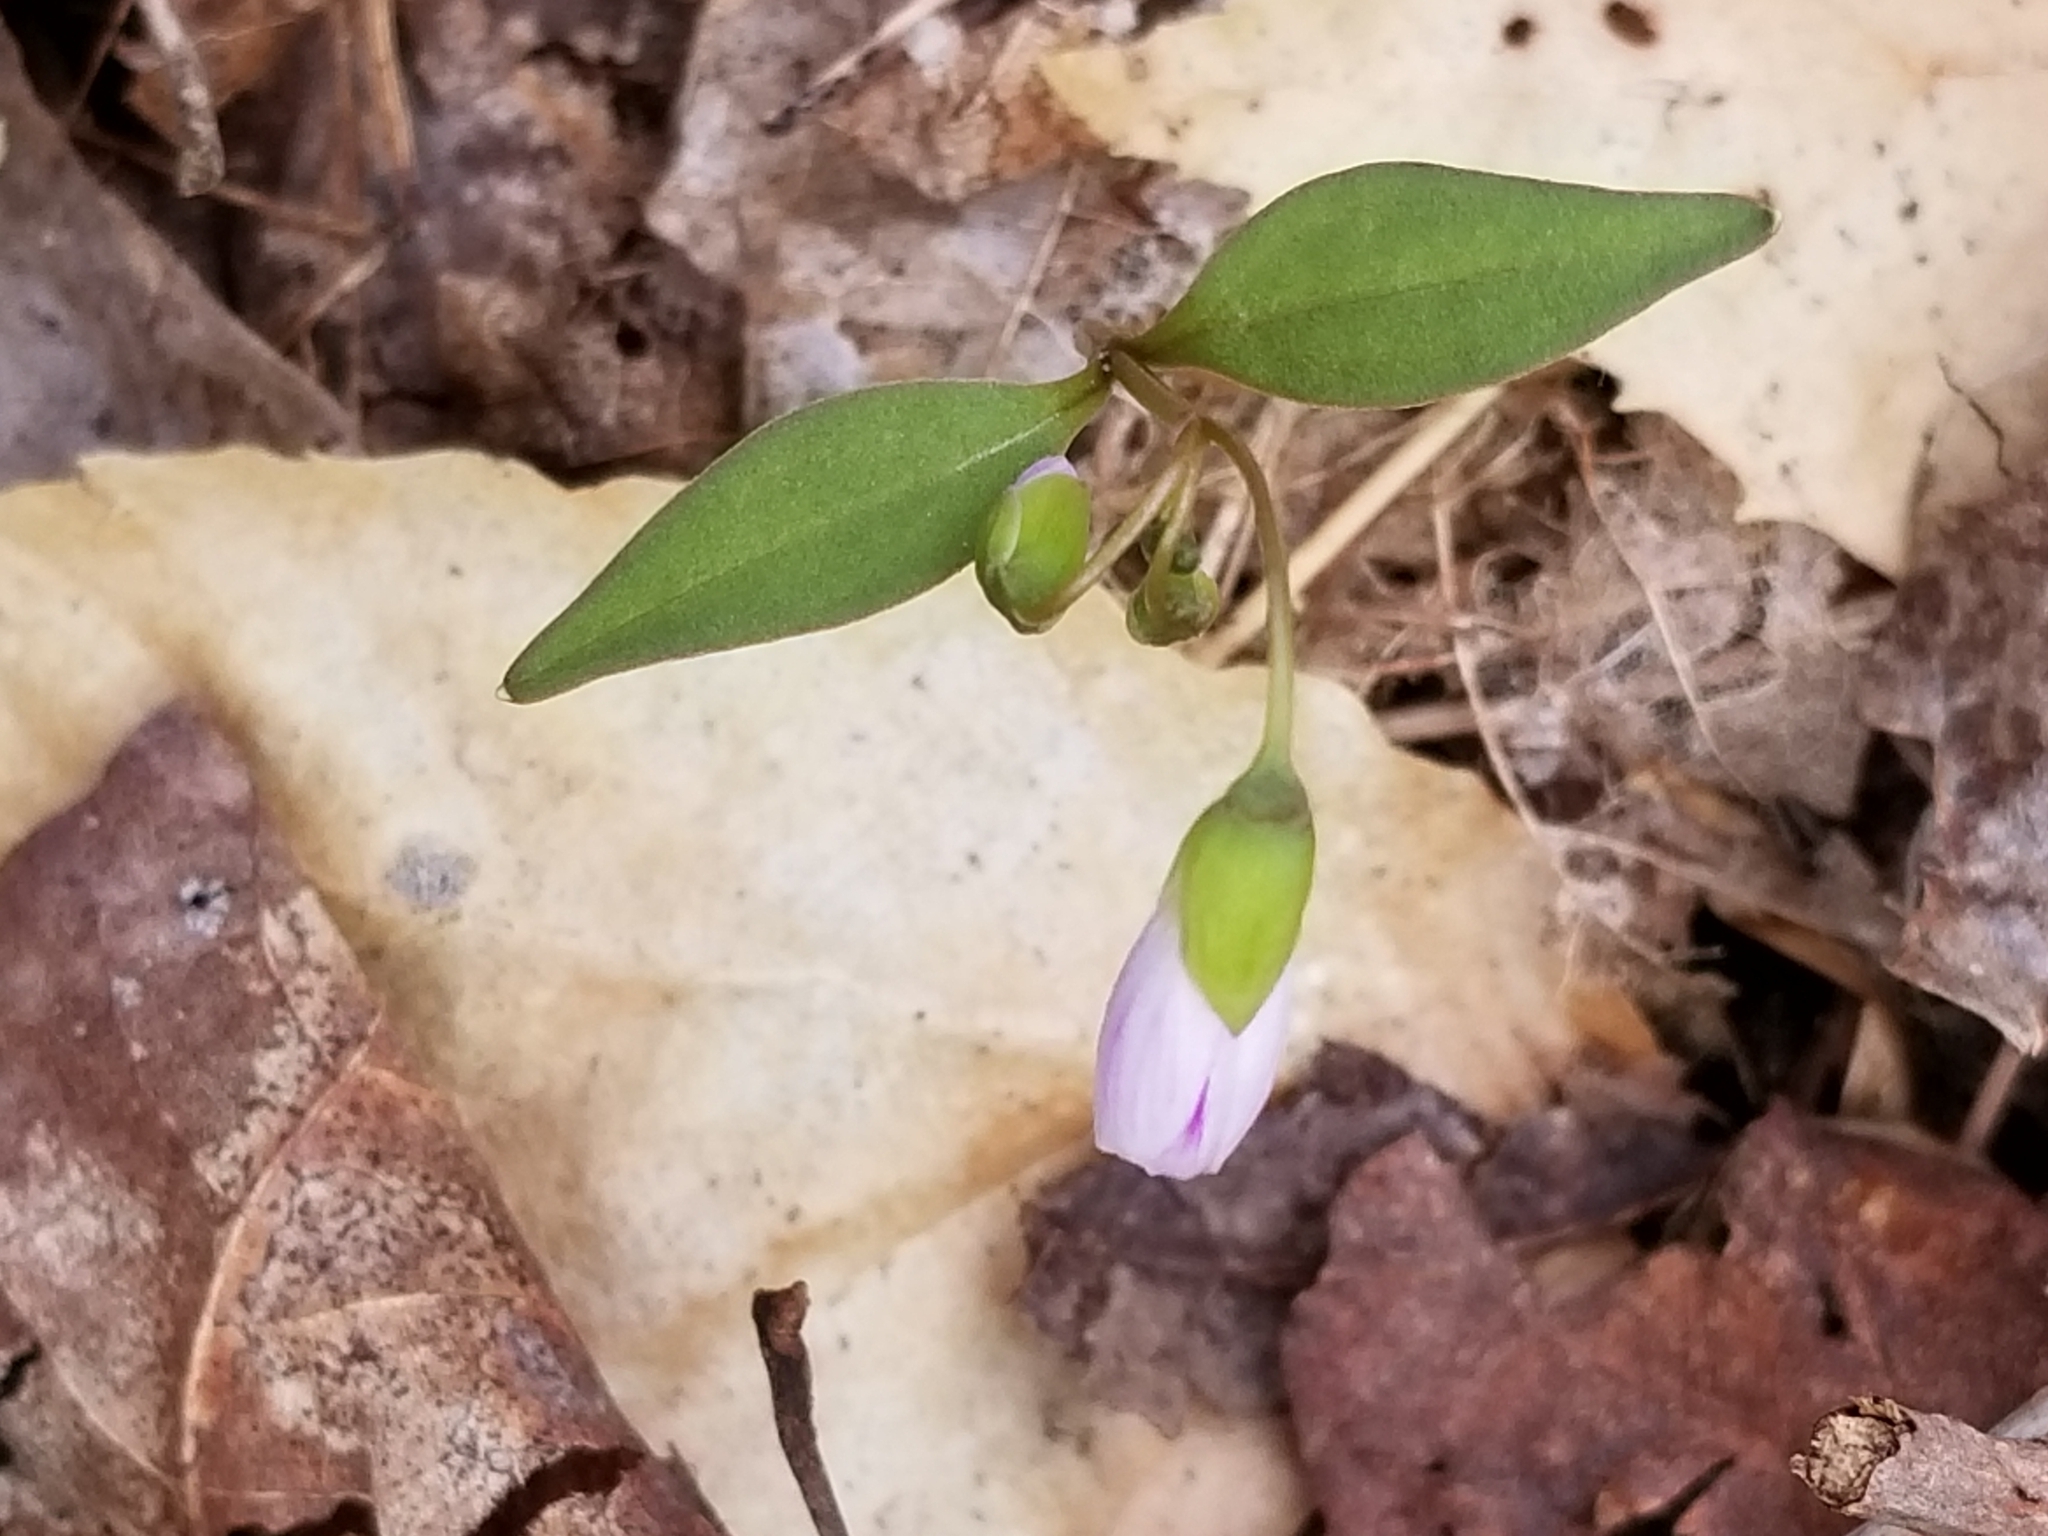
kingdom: Plantae
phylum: Tracheophyta
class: Magnoliopsida
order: Caryophyllales
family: Montiaceae
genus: Claytonia
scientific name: Claytonia caroliniana
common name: Carolina spring beauty
